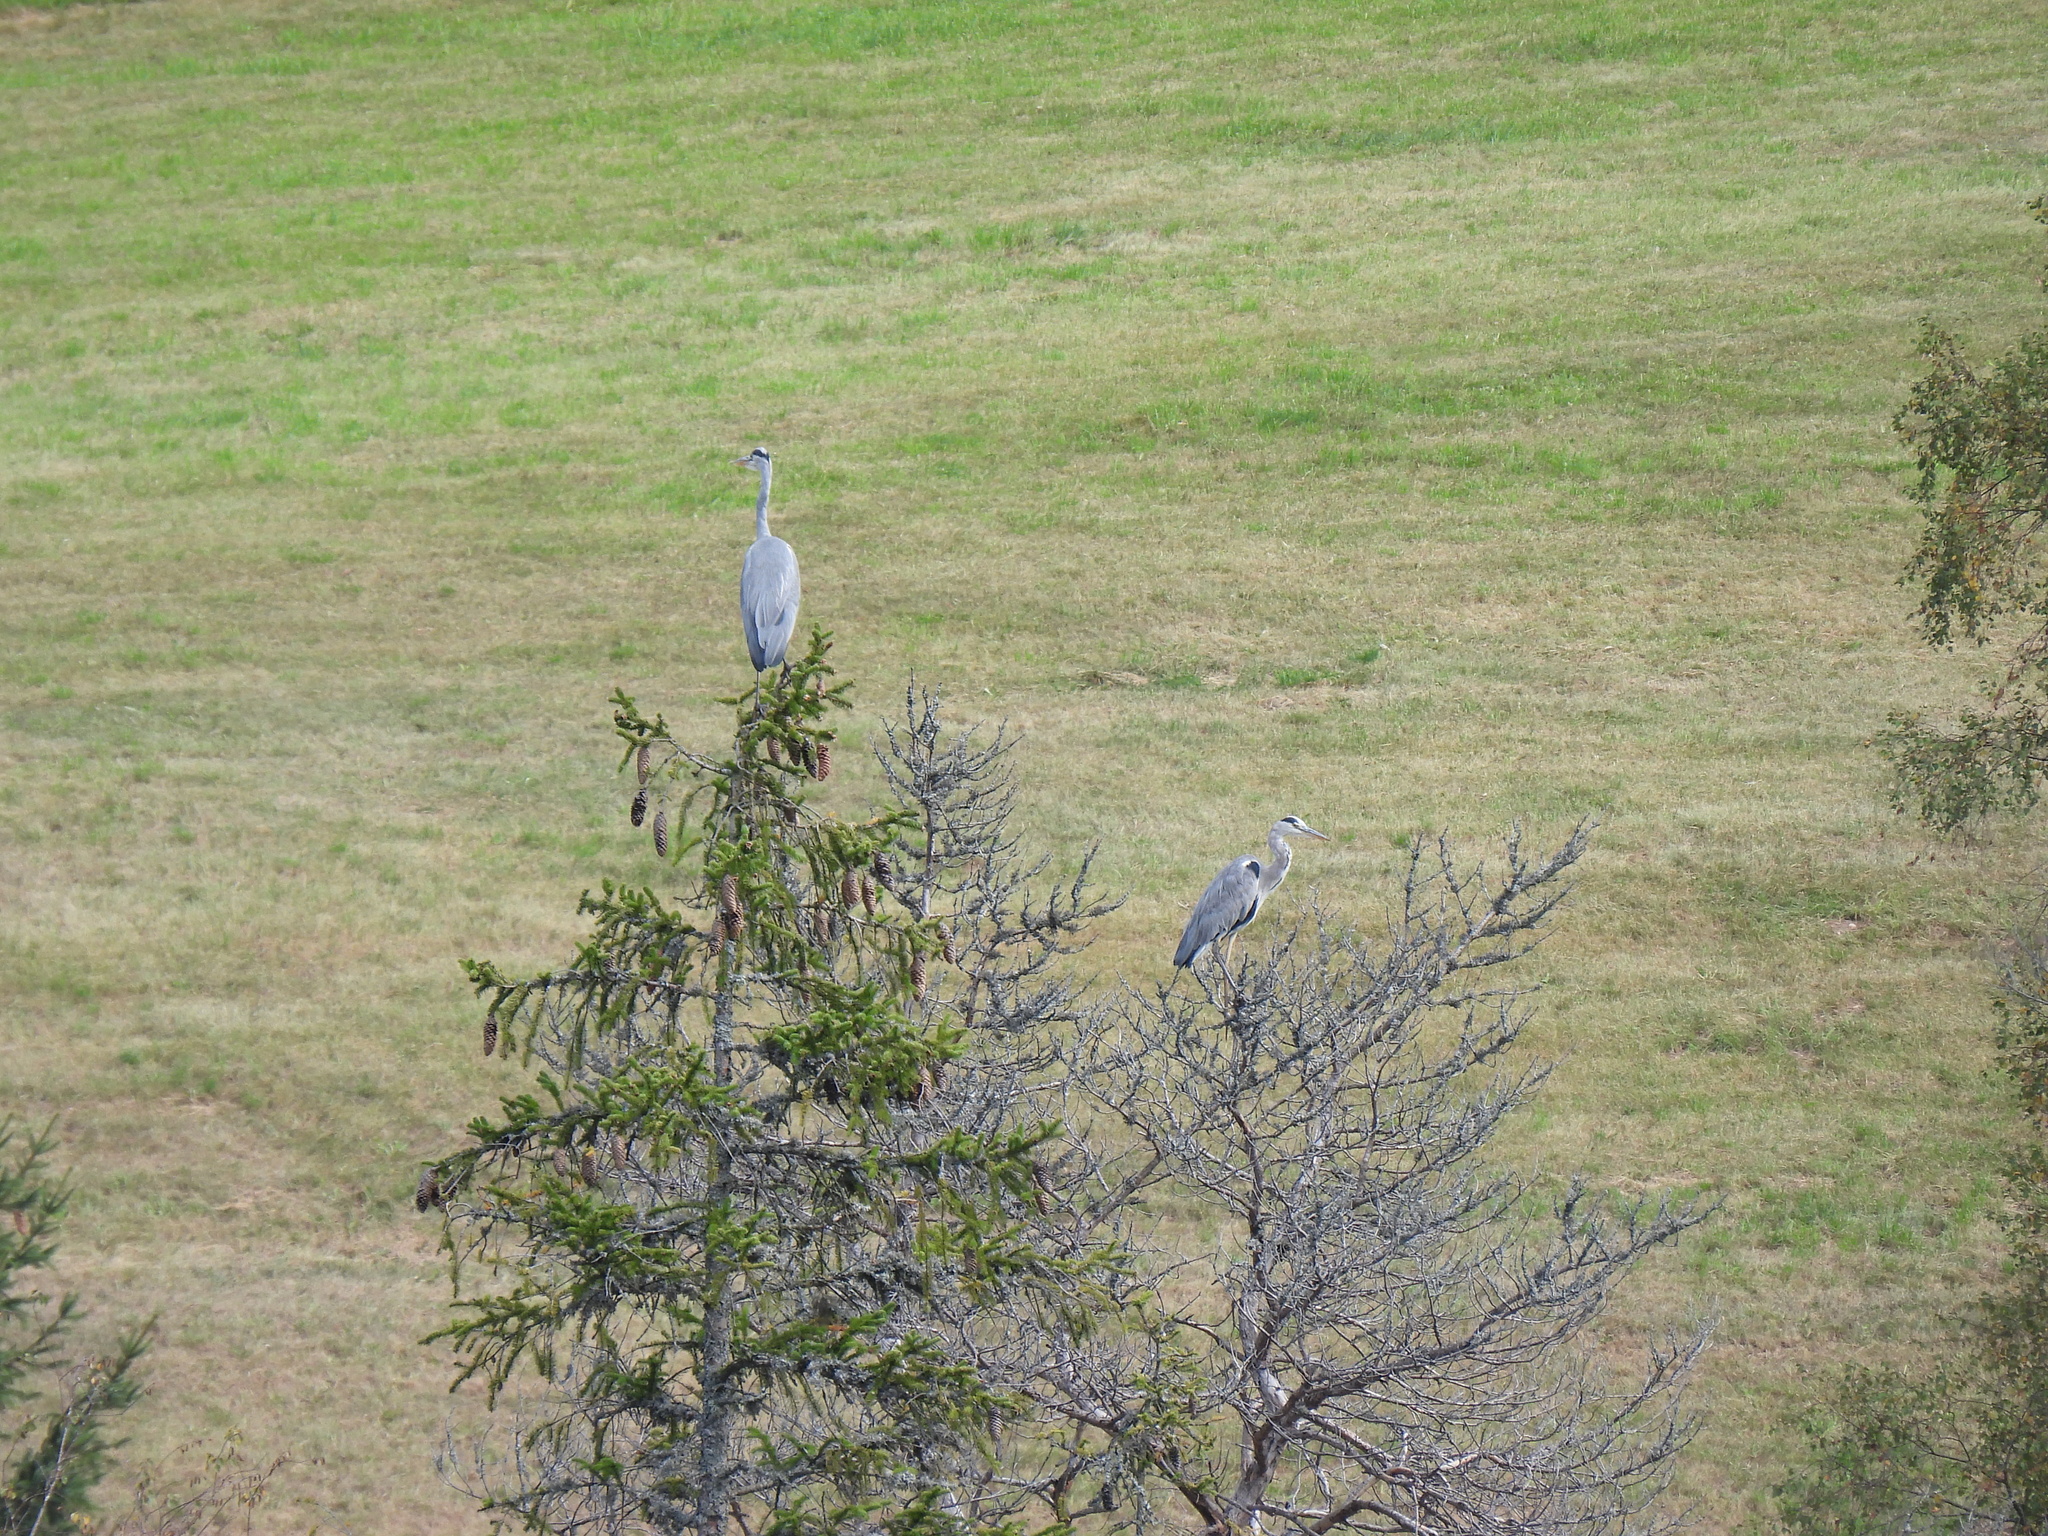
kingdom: Animalia
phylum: Chordata
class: Aves
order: Pelecaniformes
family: Ardeidae
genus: Ardea
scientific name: Ardea cinerea
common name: Grey heron
